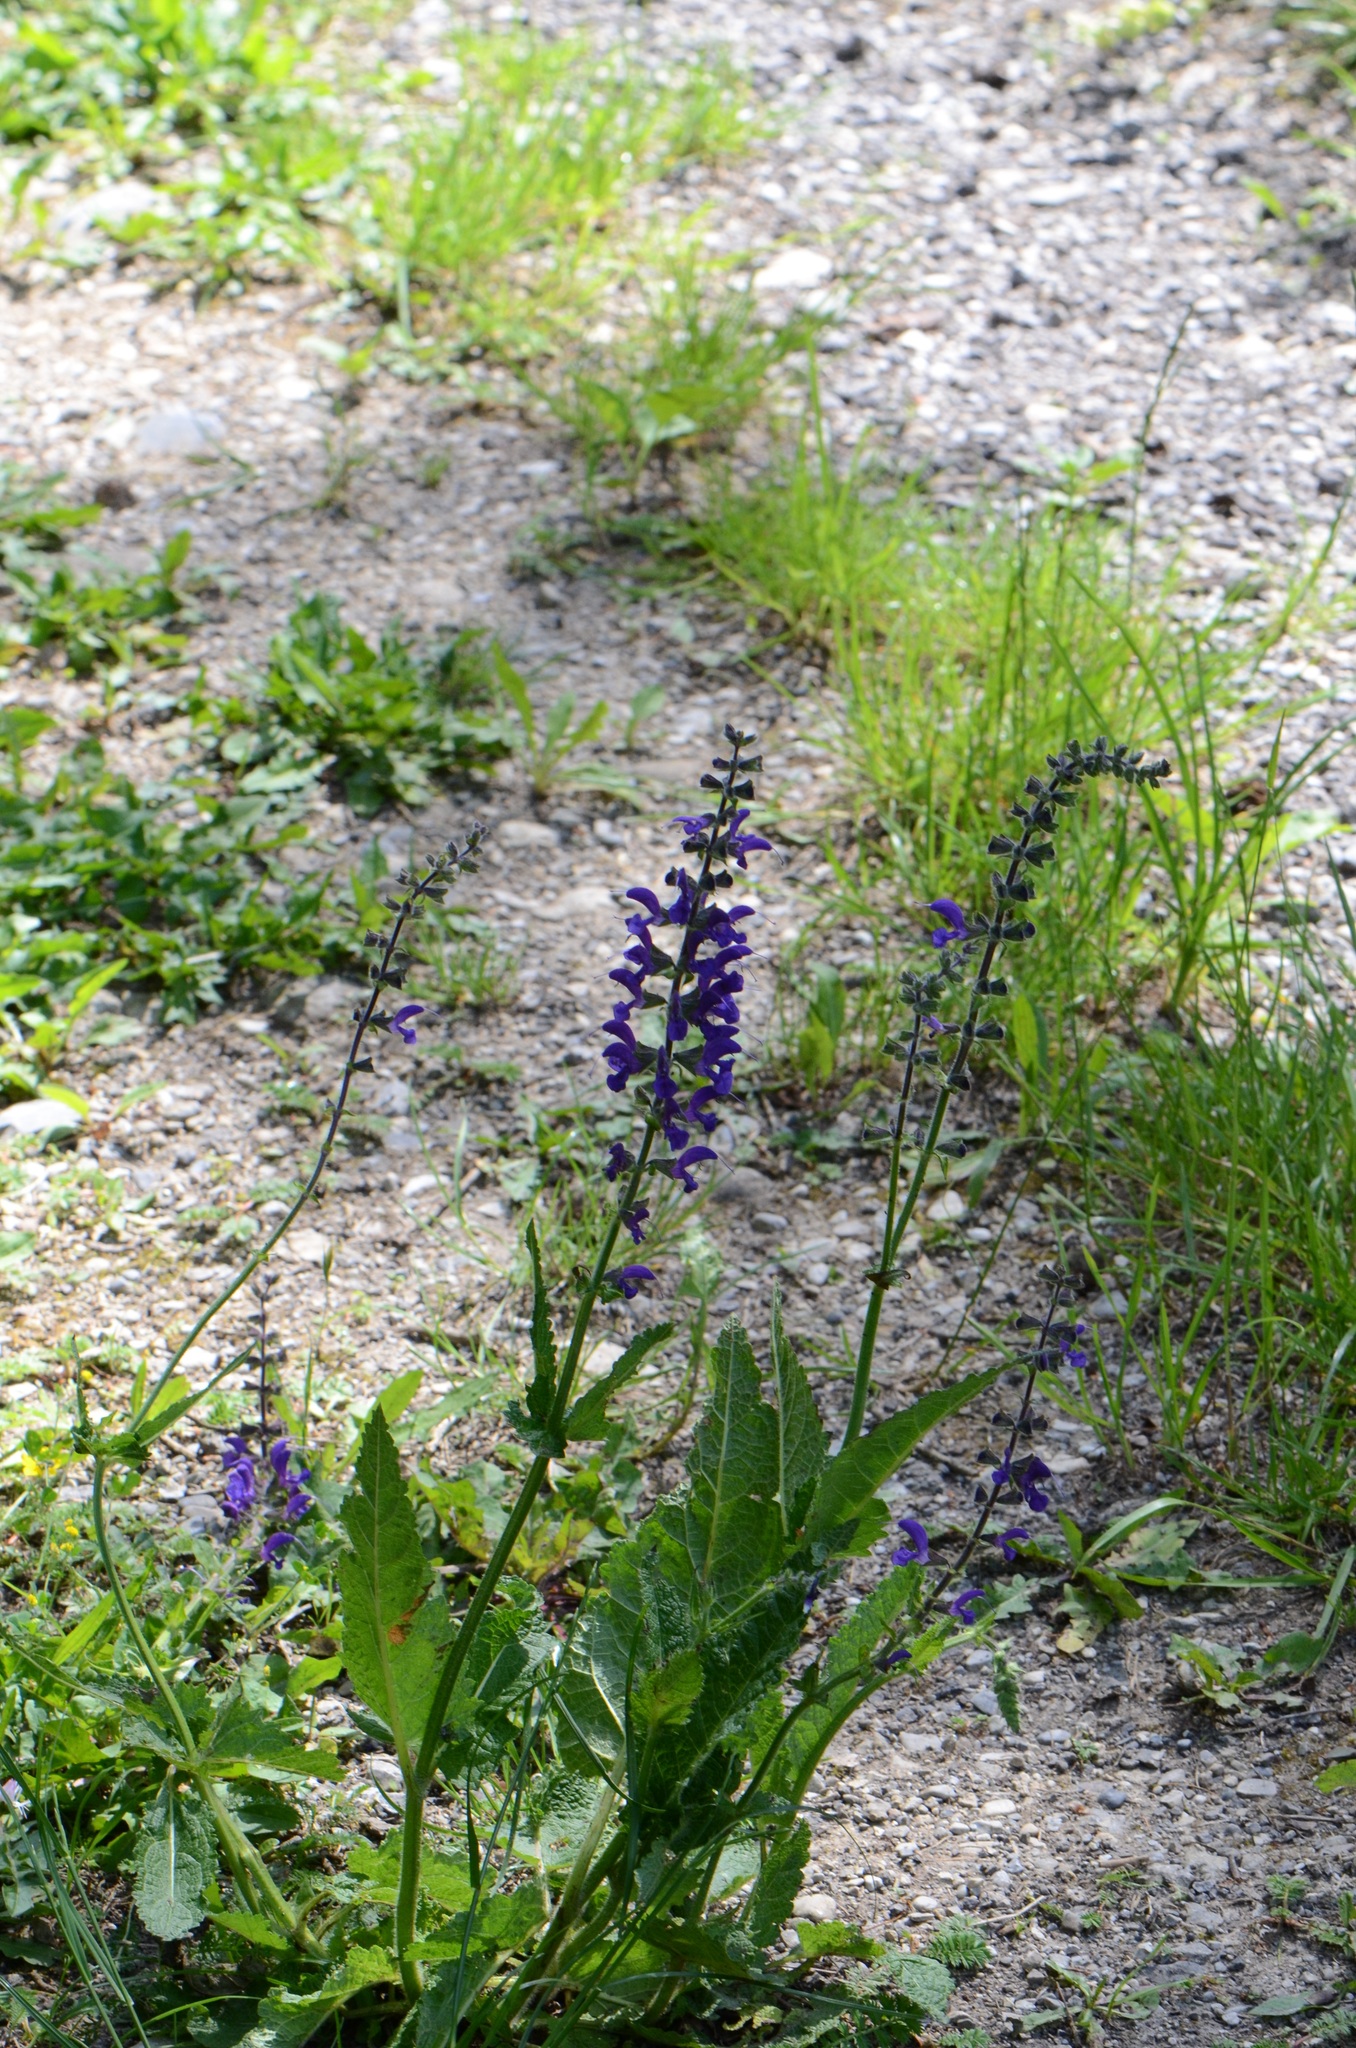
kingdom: Plantae
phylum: Tracheophyta
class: Magnoliopsida
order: Lamiales
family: Lamiaceae
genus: Salvia
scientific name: Salvia pratensis
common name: Meadow sage
